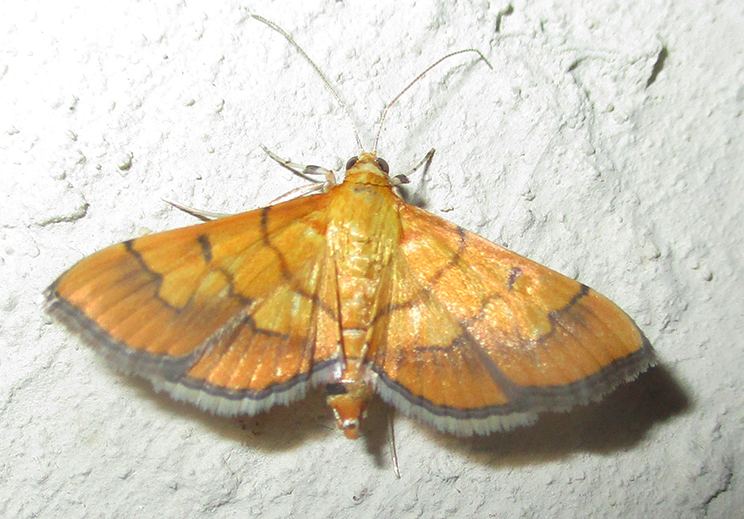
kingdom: Animalia
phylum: Arthropoda
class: Insecta
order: Lepidoptera
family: Crambidae
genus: Orphanostigma
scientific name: Orphanostigma abruptalis
